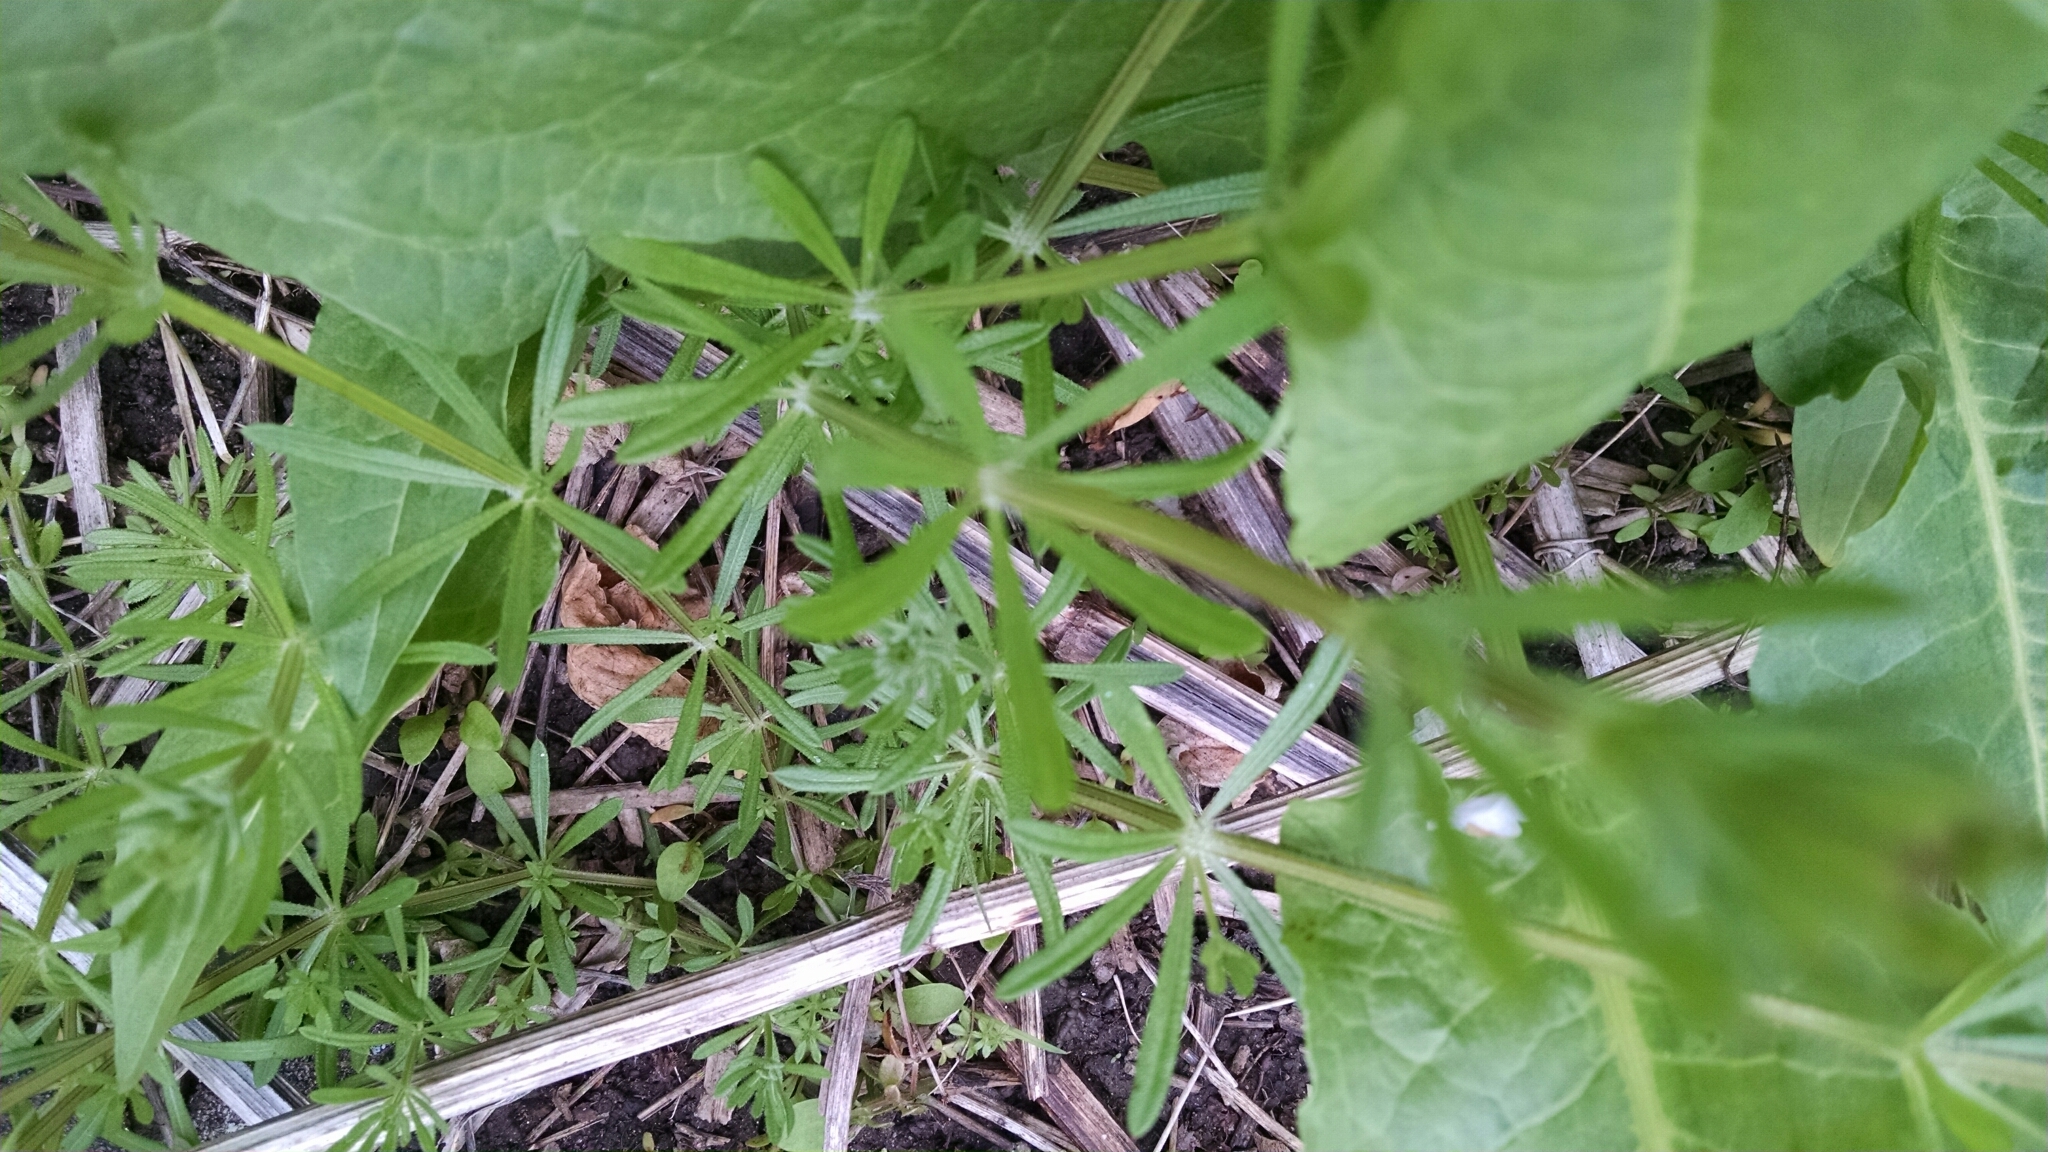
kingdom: Plantae
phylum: Tracheophyta
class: Magnoliopsida
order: Gentianales
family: Rubiaceae
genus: Galium
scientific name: Galium aparine
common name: Cleavers
